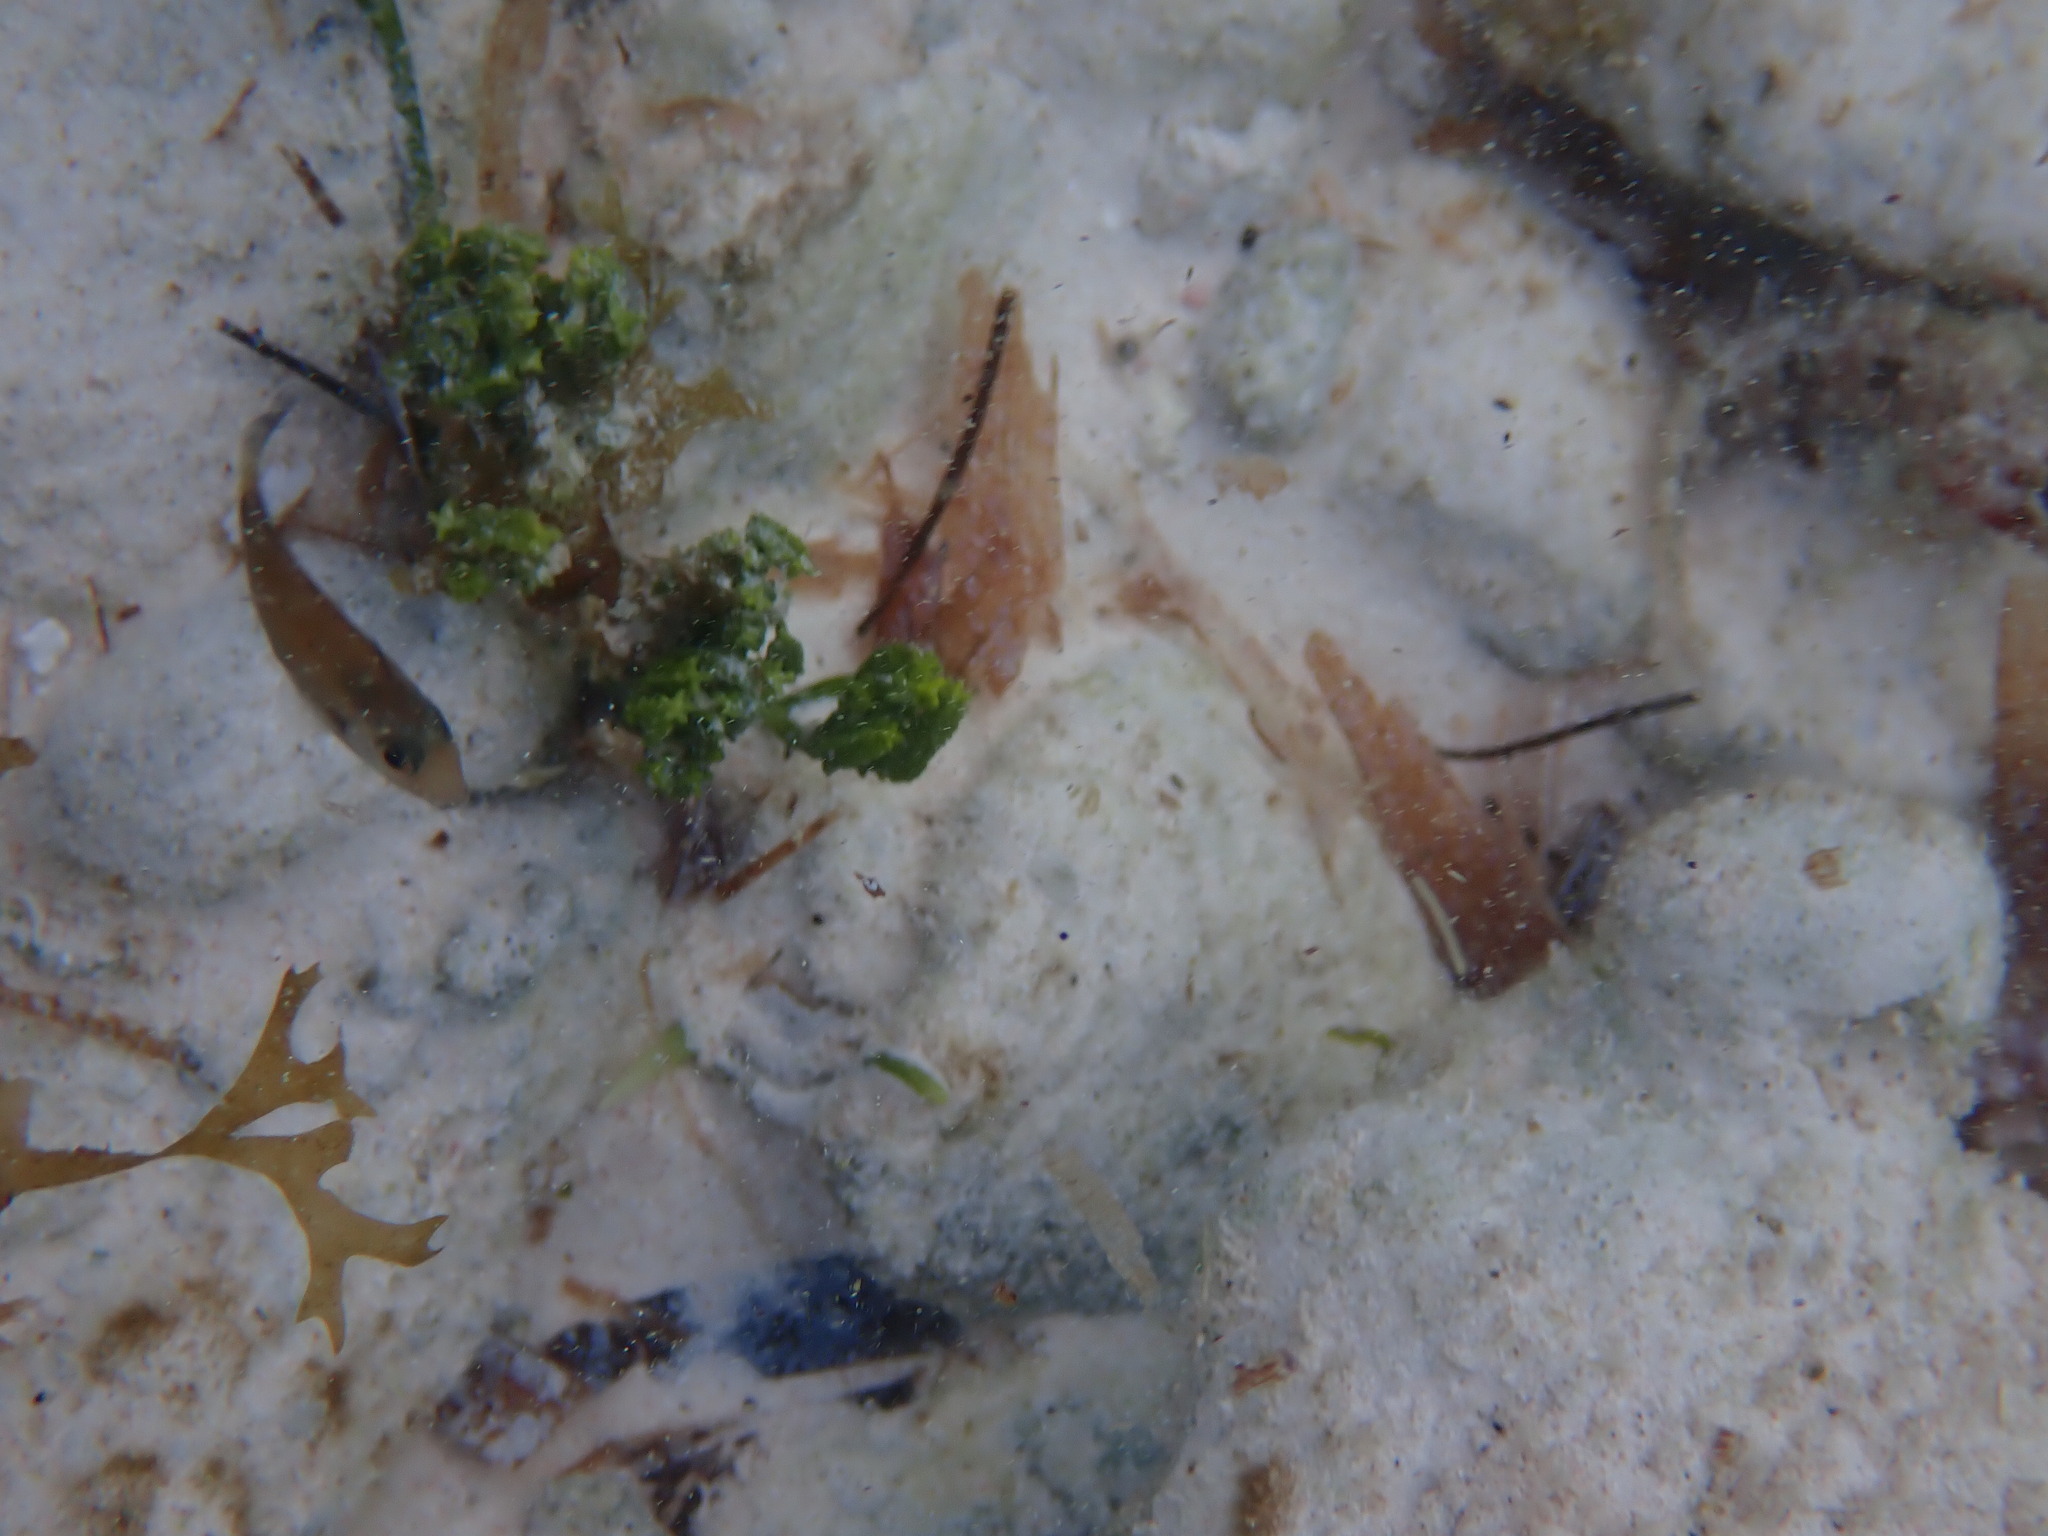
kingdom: Plantae
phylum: Chlorophyta
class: Ulvophyceae
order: Bryopsidales
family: Caulerpaceae
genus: Caulerpa
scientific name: Caulerpa cupressoides
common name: Cactus tree algae
